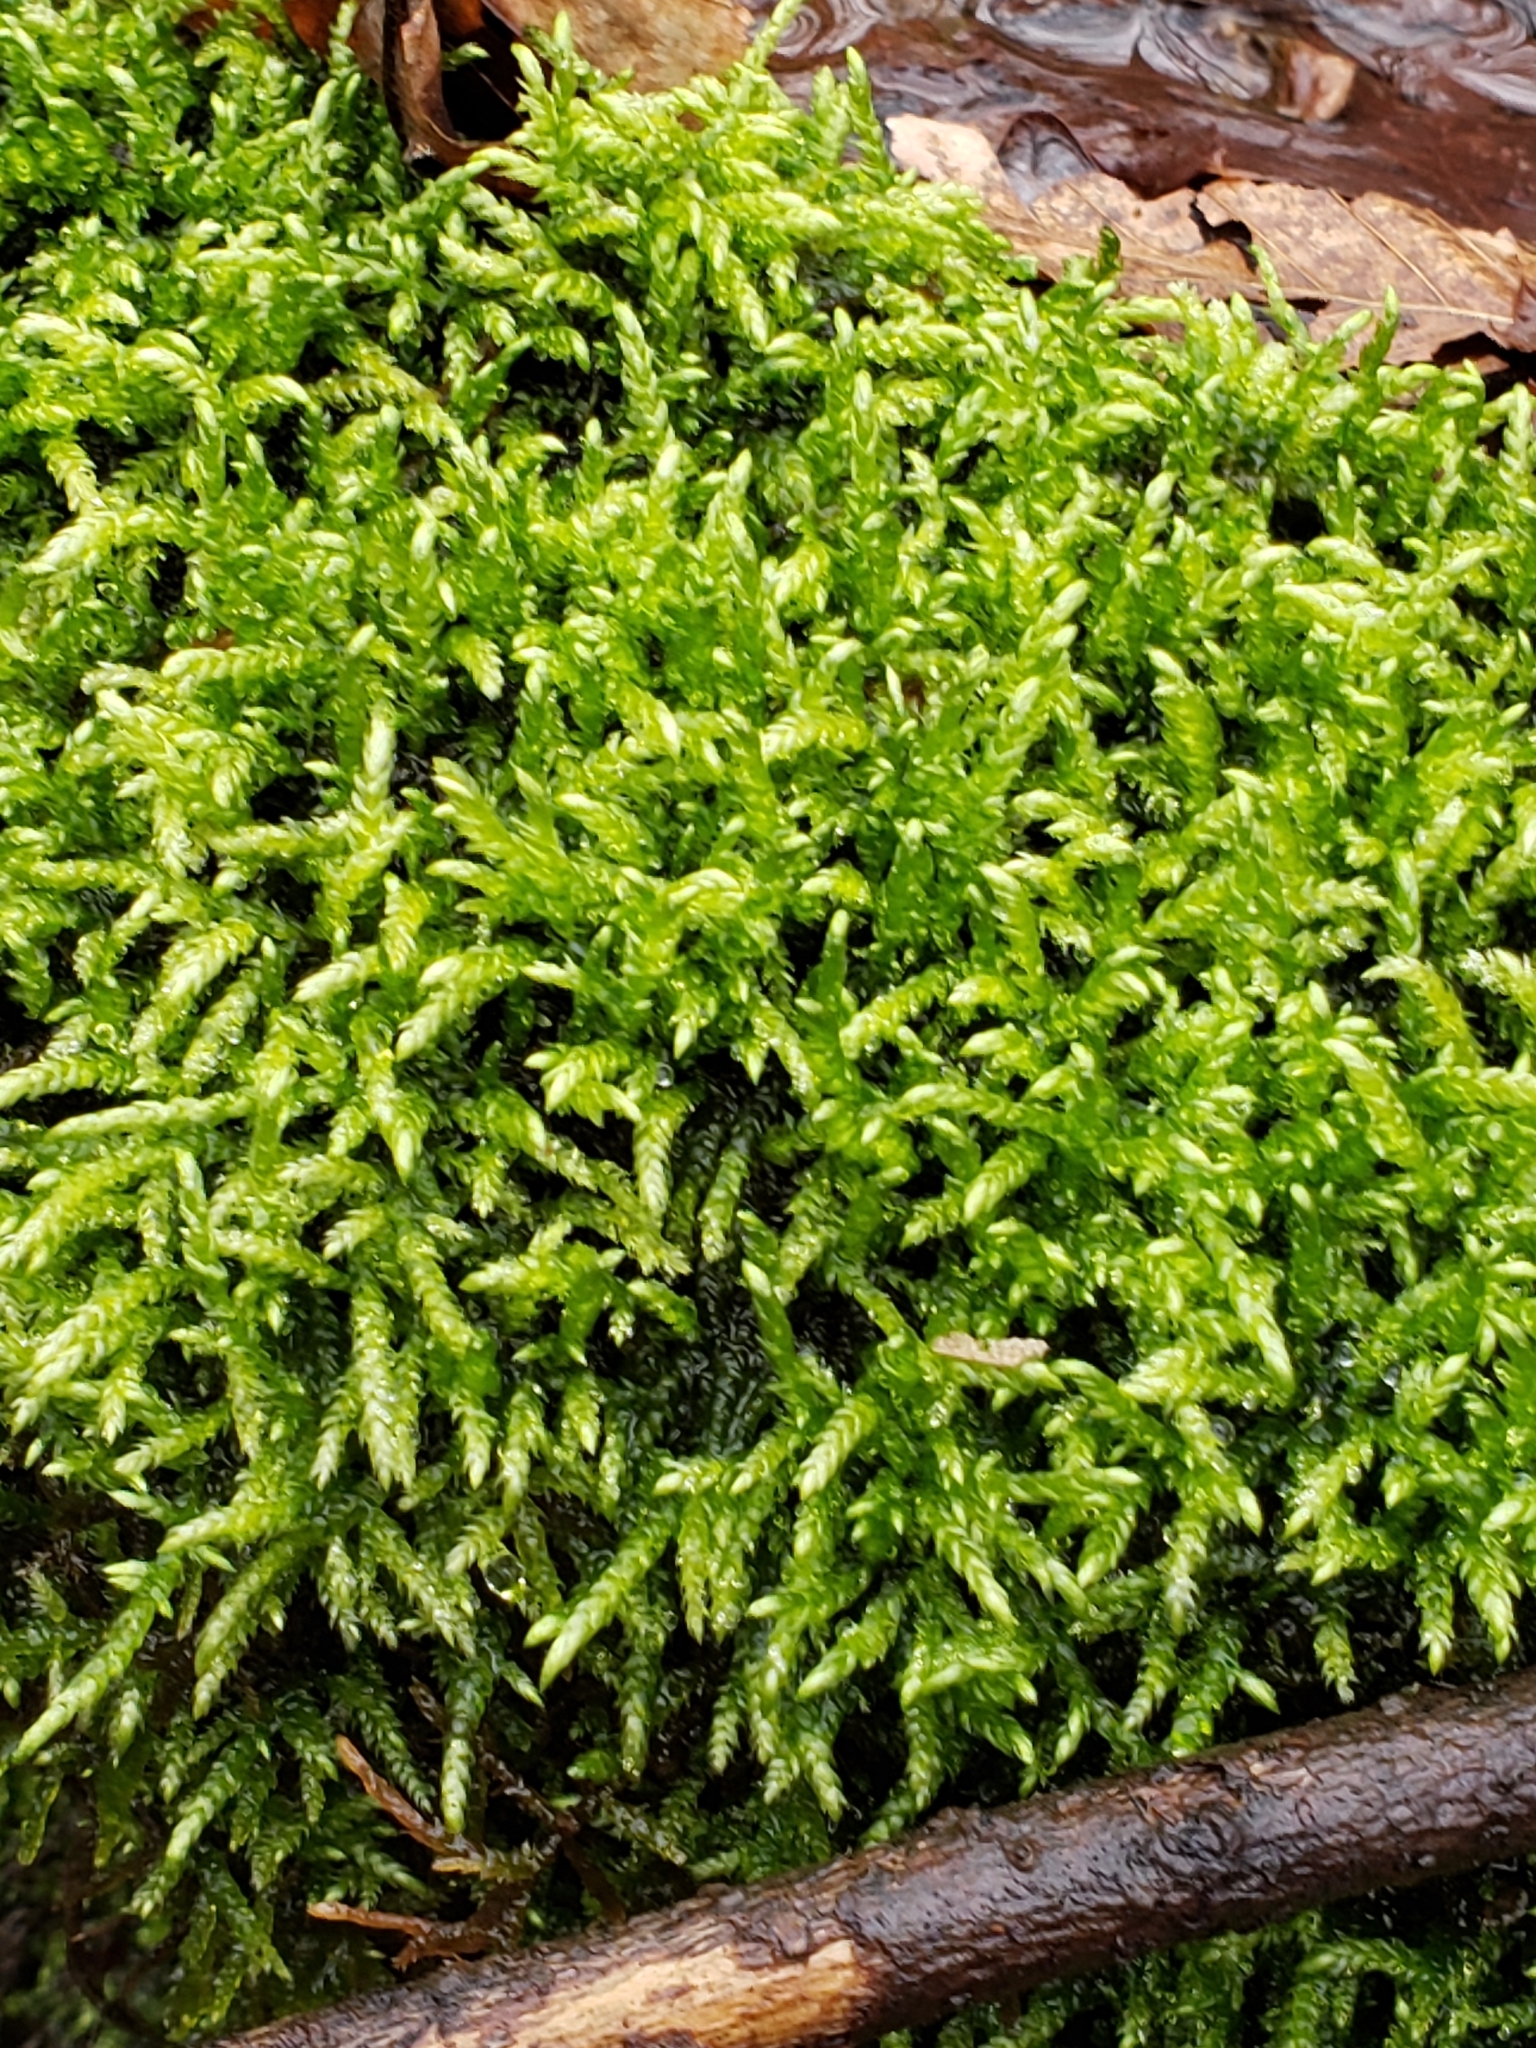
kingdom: Plantae
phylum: Bryophyta
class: Bryopsida
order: Hypnales
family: Brachytheciaceae
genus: Bryoandersonia
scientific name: Bryoandersonia illecebra
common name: Spoon-leaved moss
